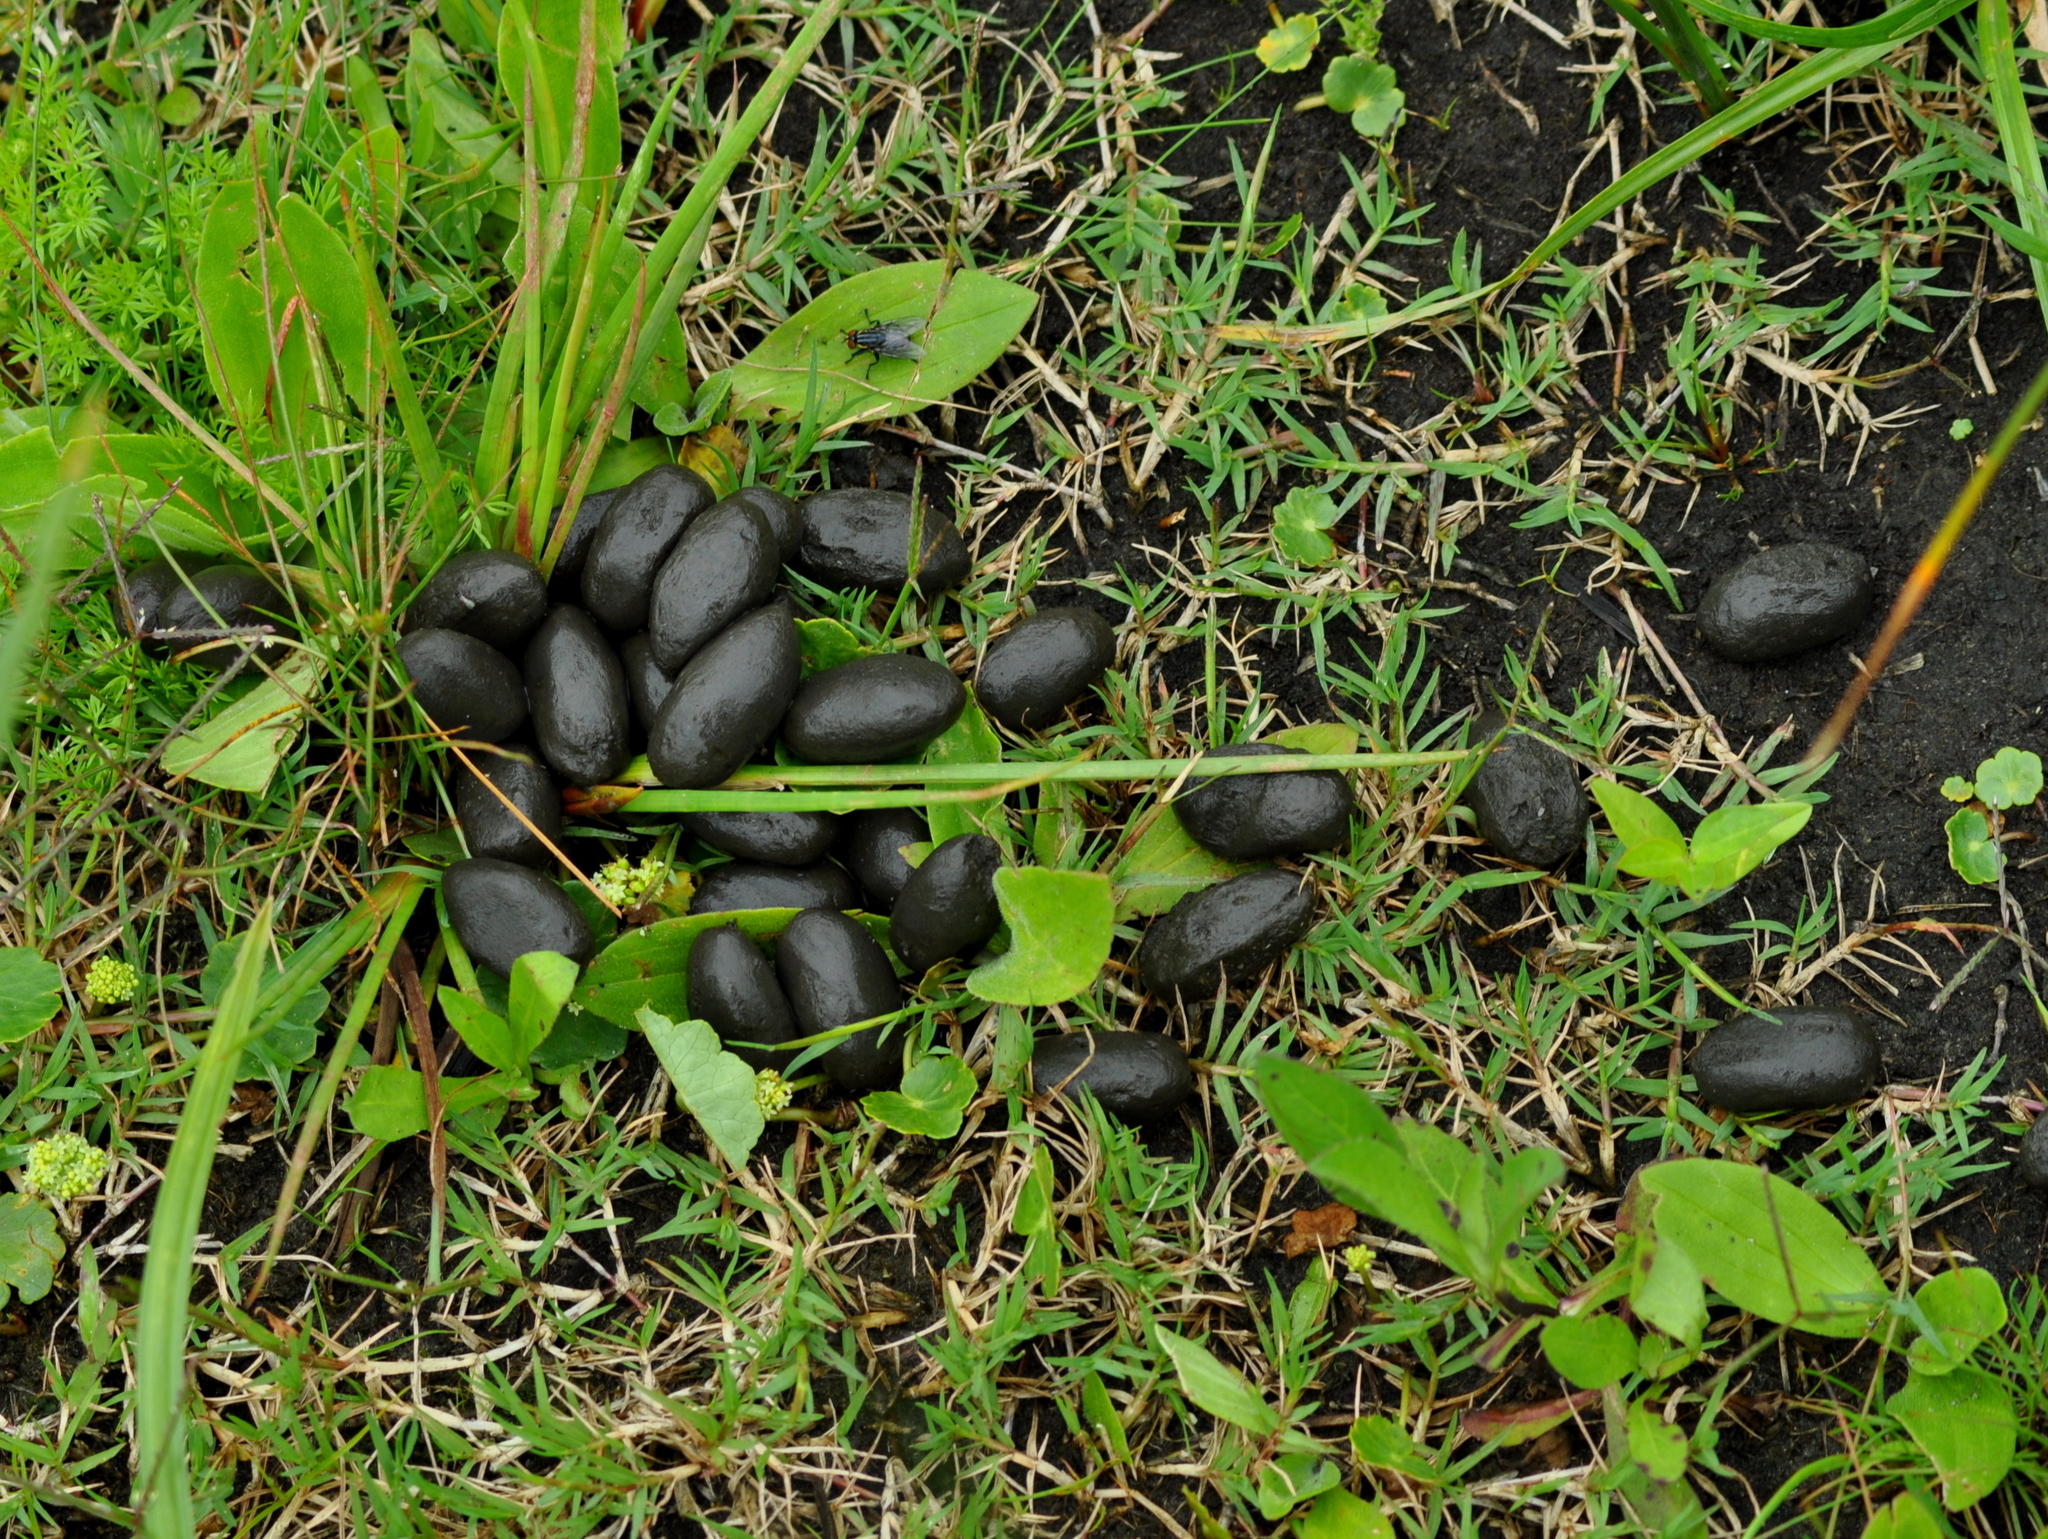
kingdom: Animalia
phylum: Chordata
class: Mammalia
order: Rodentia
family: Caviidae
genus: Hydrochoerus
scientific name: Hydrochoerus hydrochaeris
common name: Capybara
